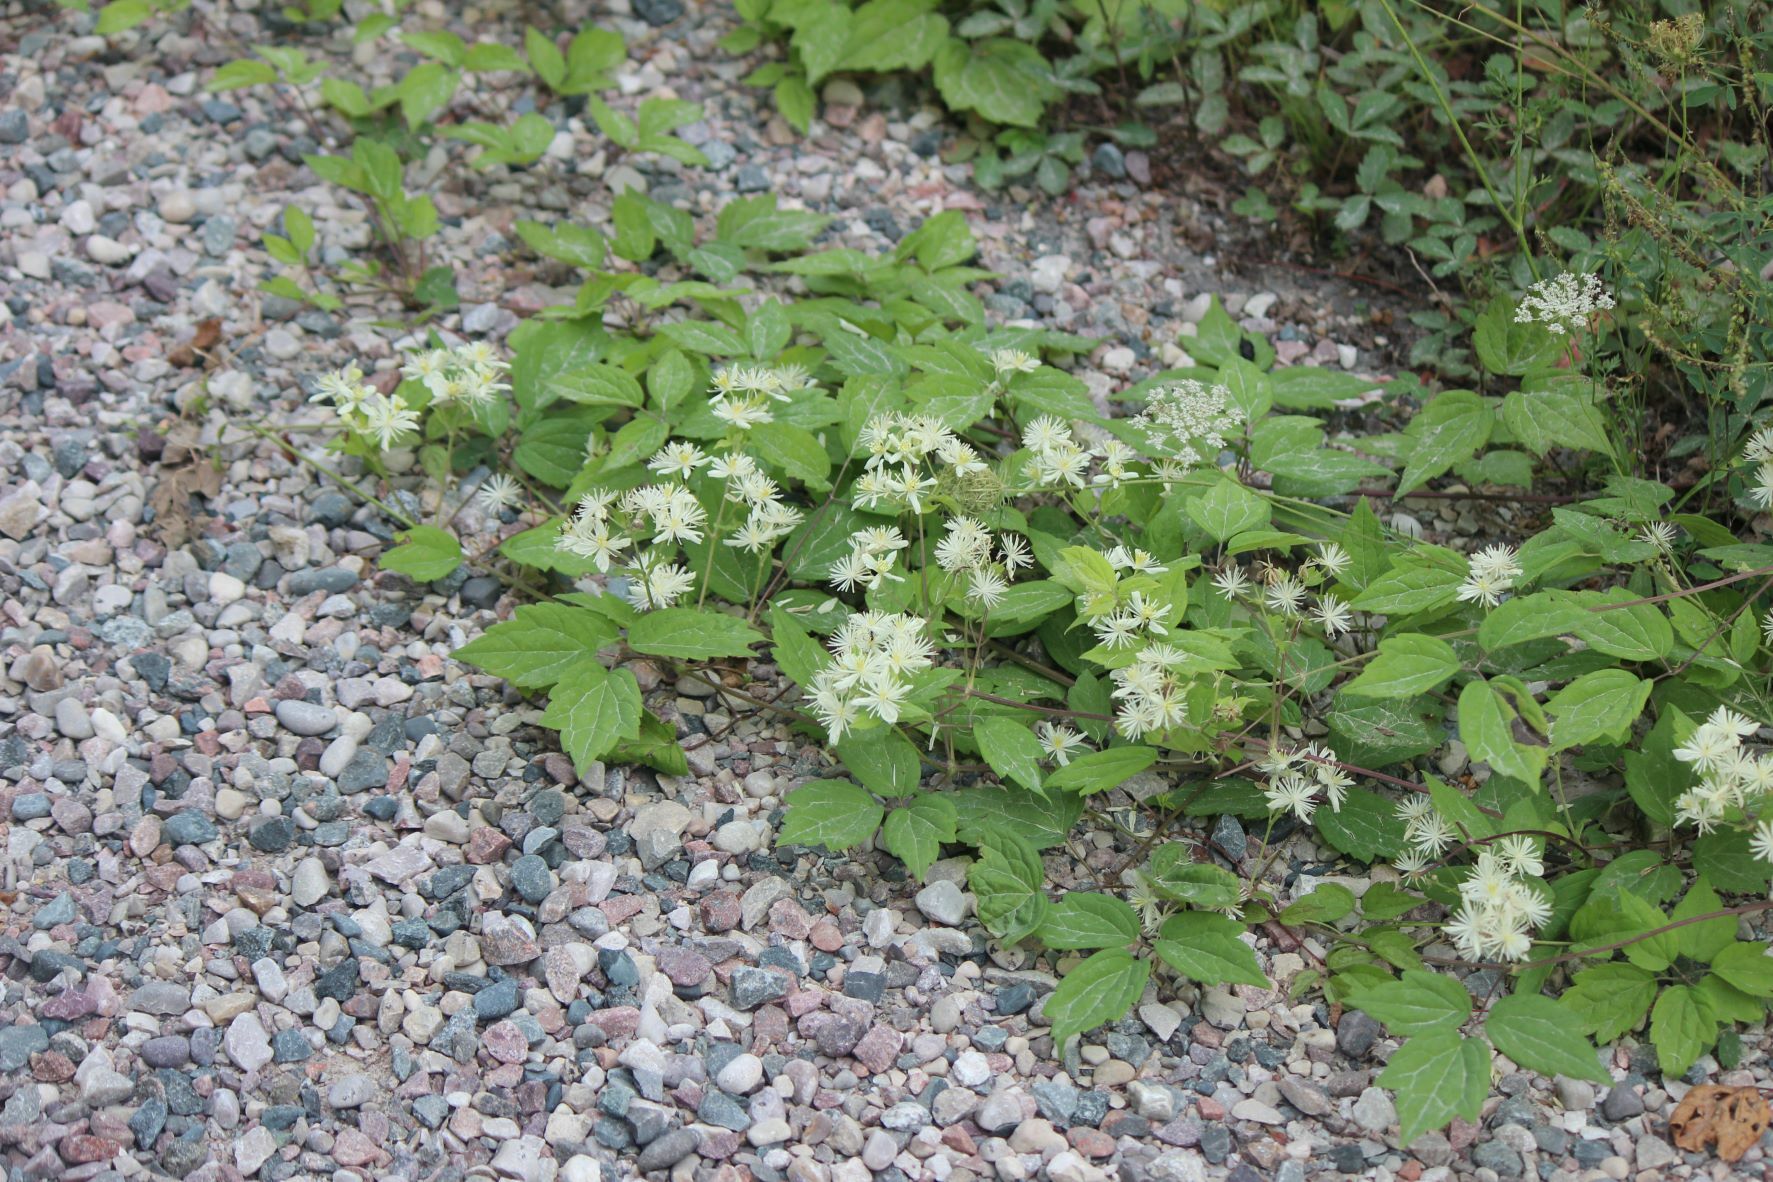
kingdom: Plantae
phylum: Tracheophyta
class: Magnoliopsida
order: Ranunculales
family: Ranunculaceae
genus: Clematis
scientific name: Clematis virginiana
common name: Virgin's-bower
